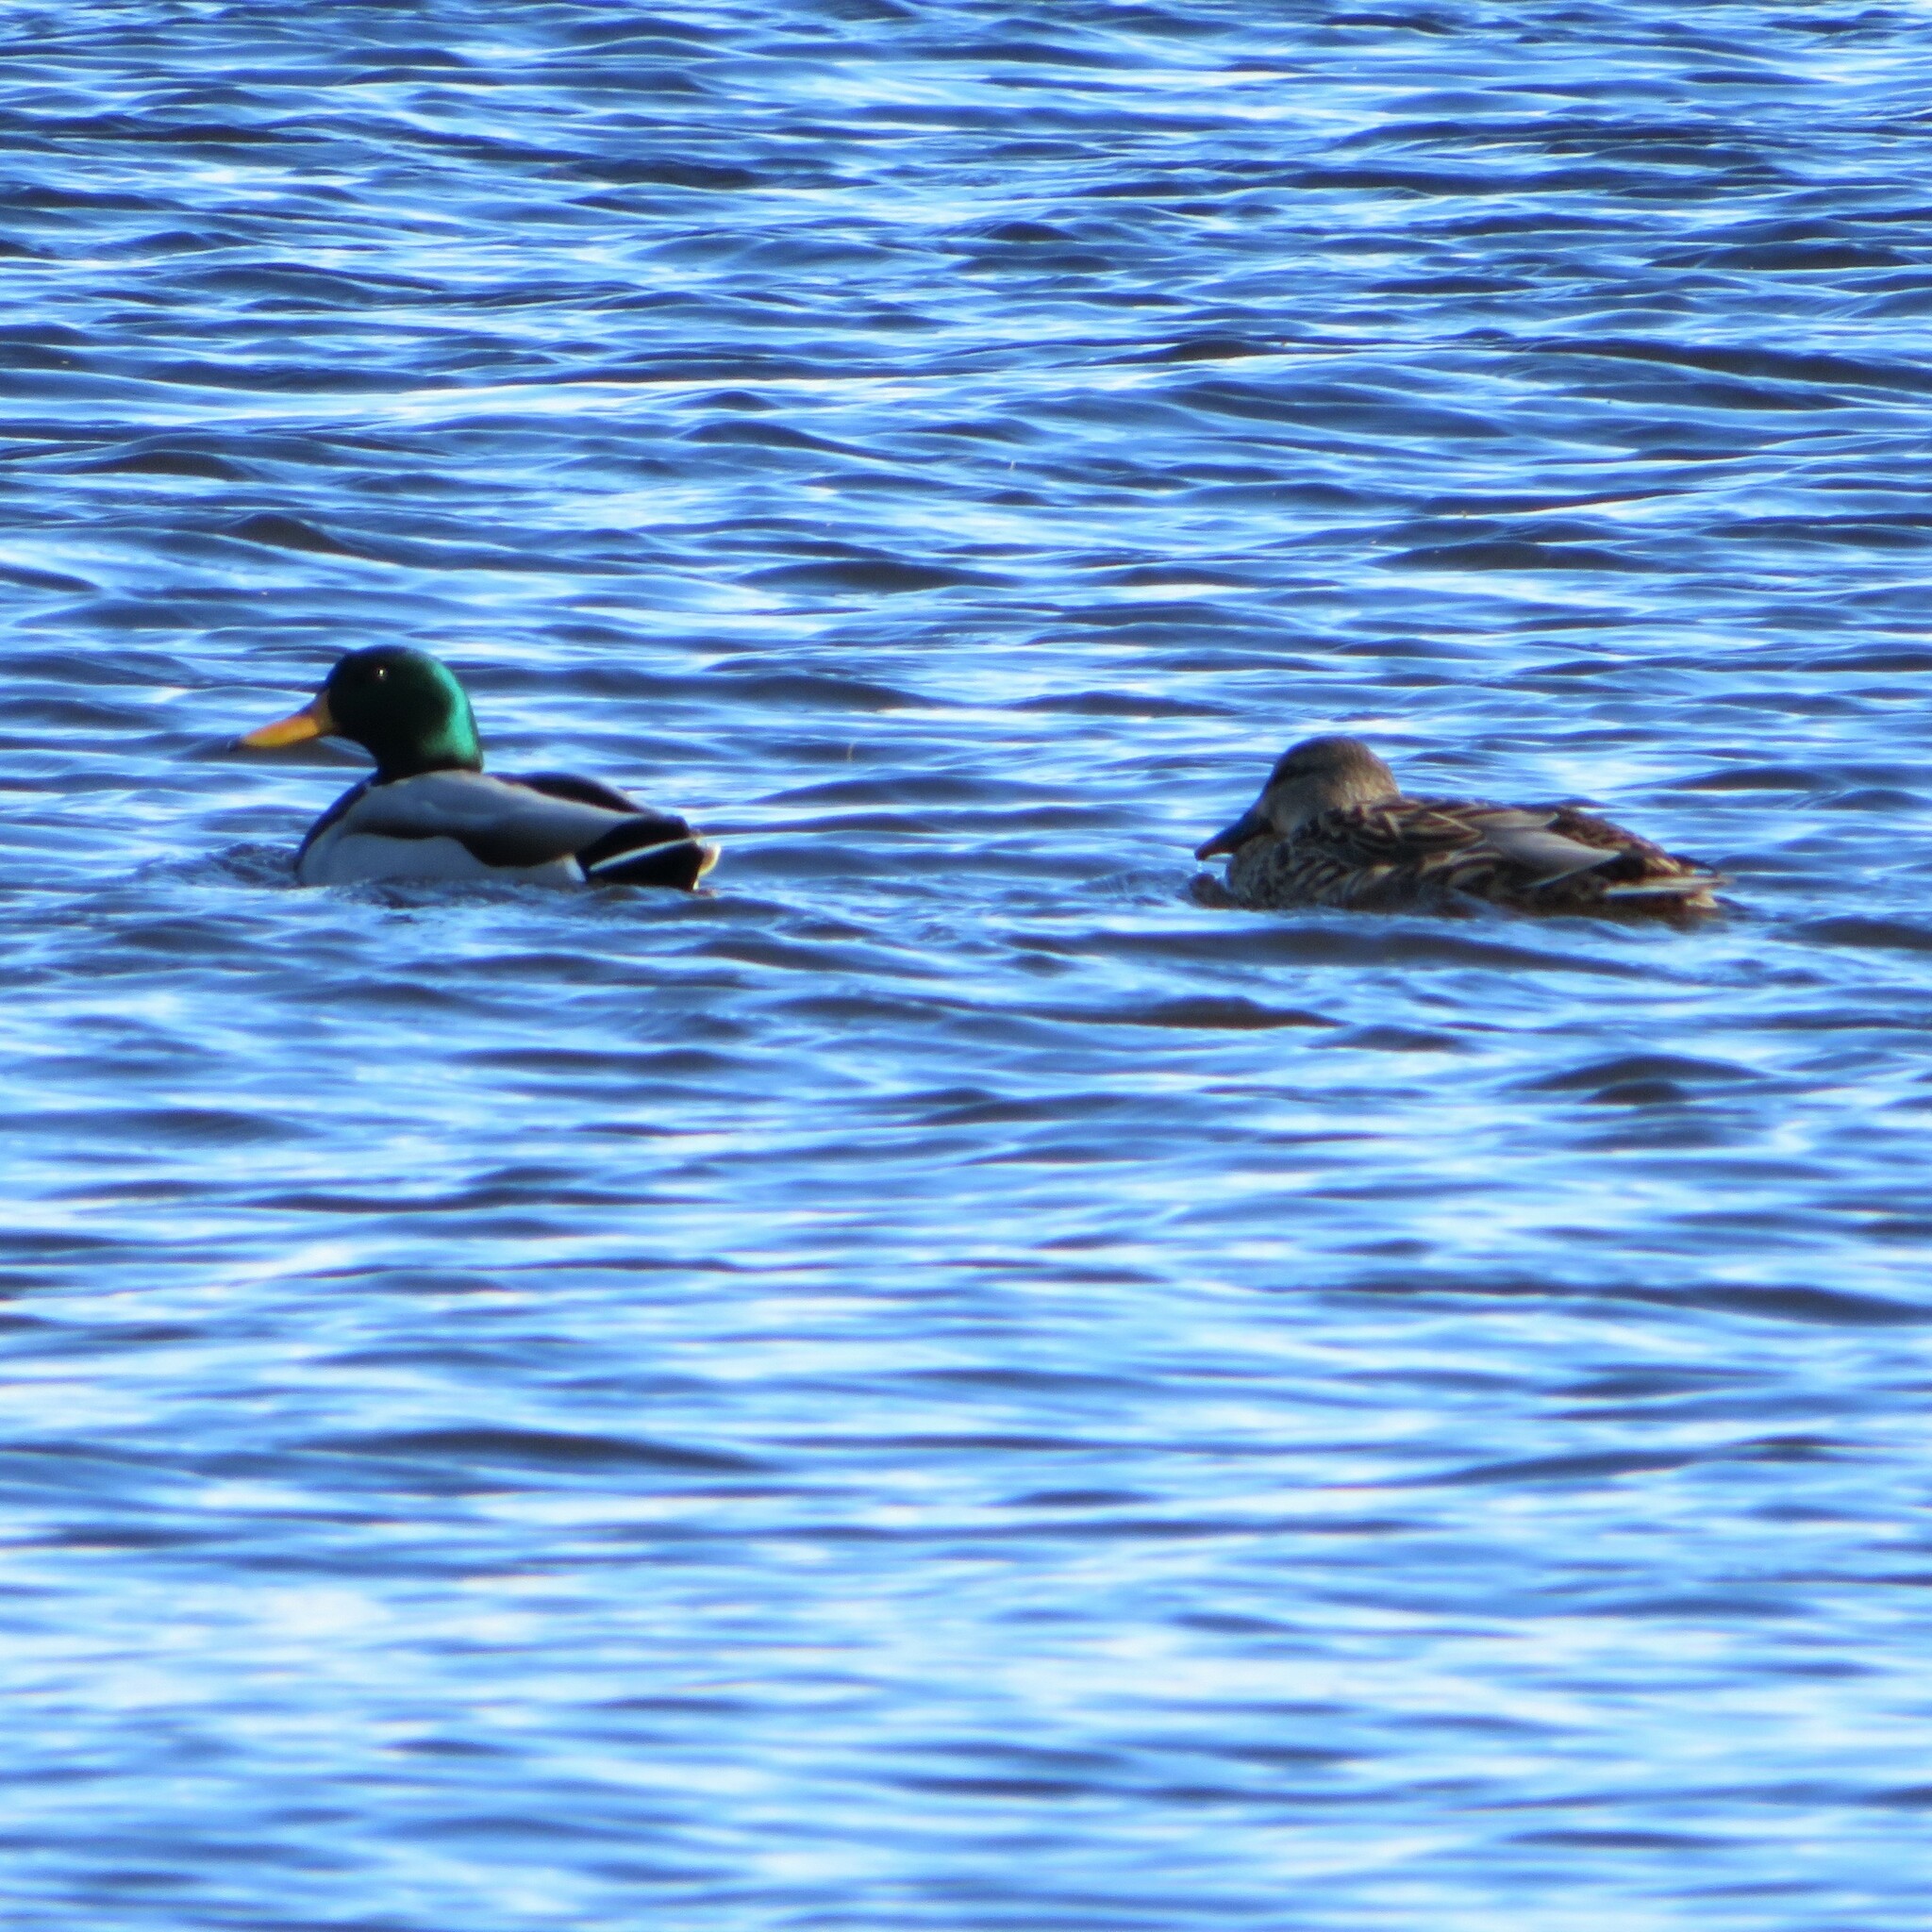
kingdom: Animalia
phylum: Chordata
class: Aves
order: Anseriformes
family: Anatidae
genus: Anas
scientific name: Anas platyrhynchos
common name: Mallard
